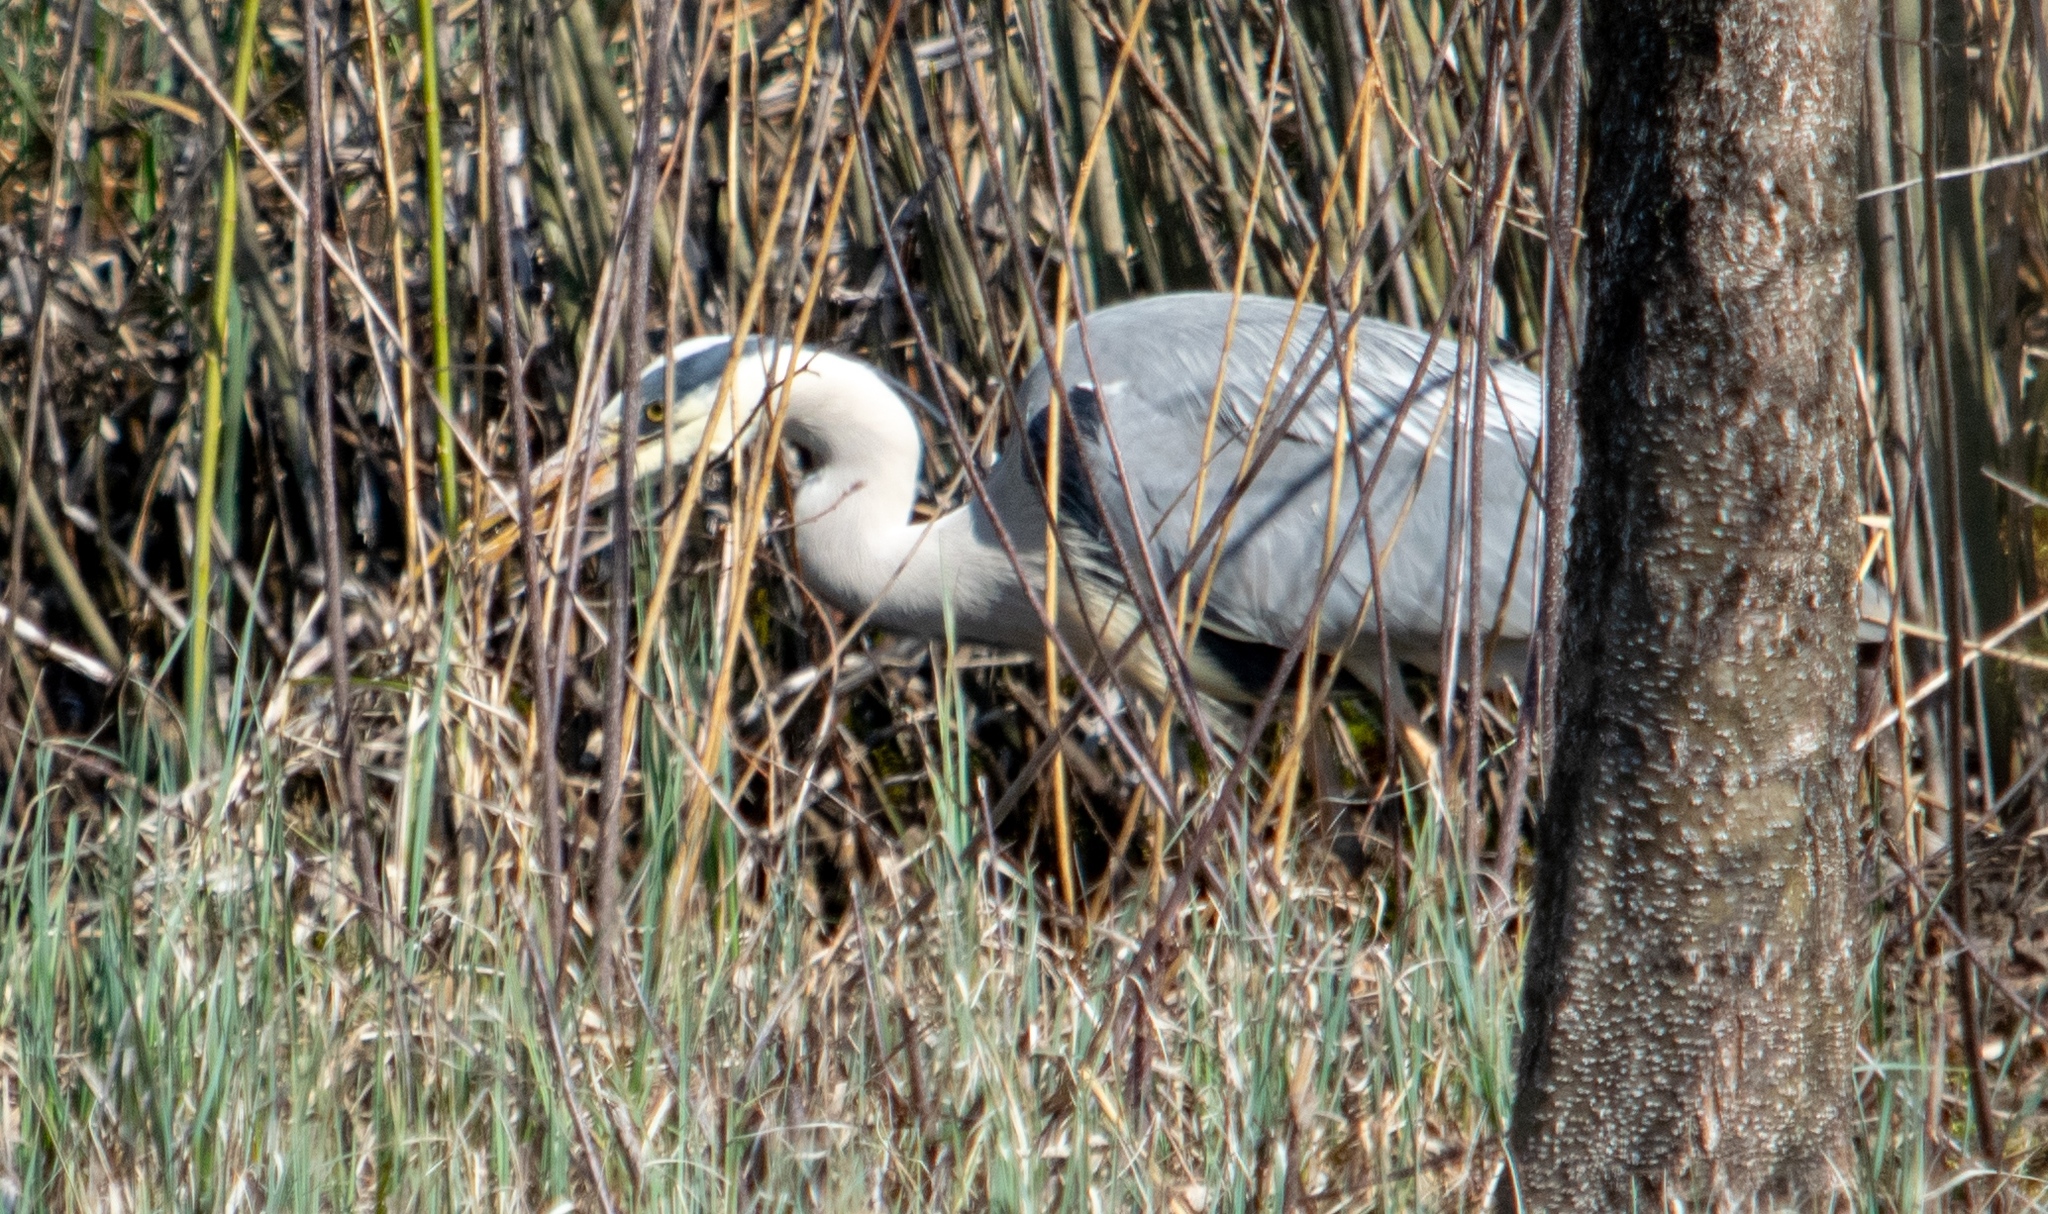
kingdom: Animalia
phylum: Chordata
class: Aves
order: Pelecaniformes
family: Ardeidae
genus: Ardea
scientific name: Ardea cinerea
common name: Grey heron
